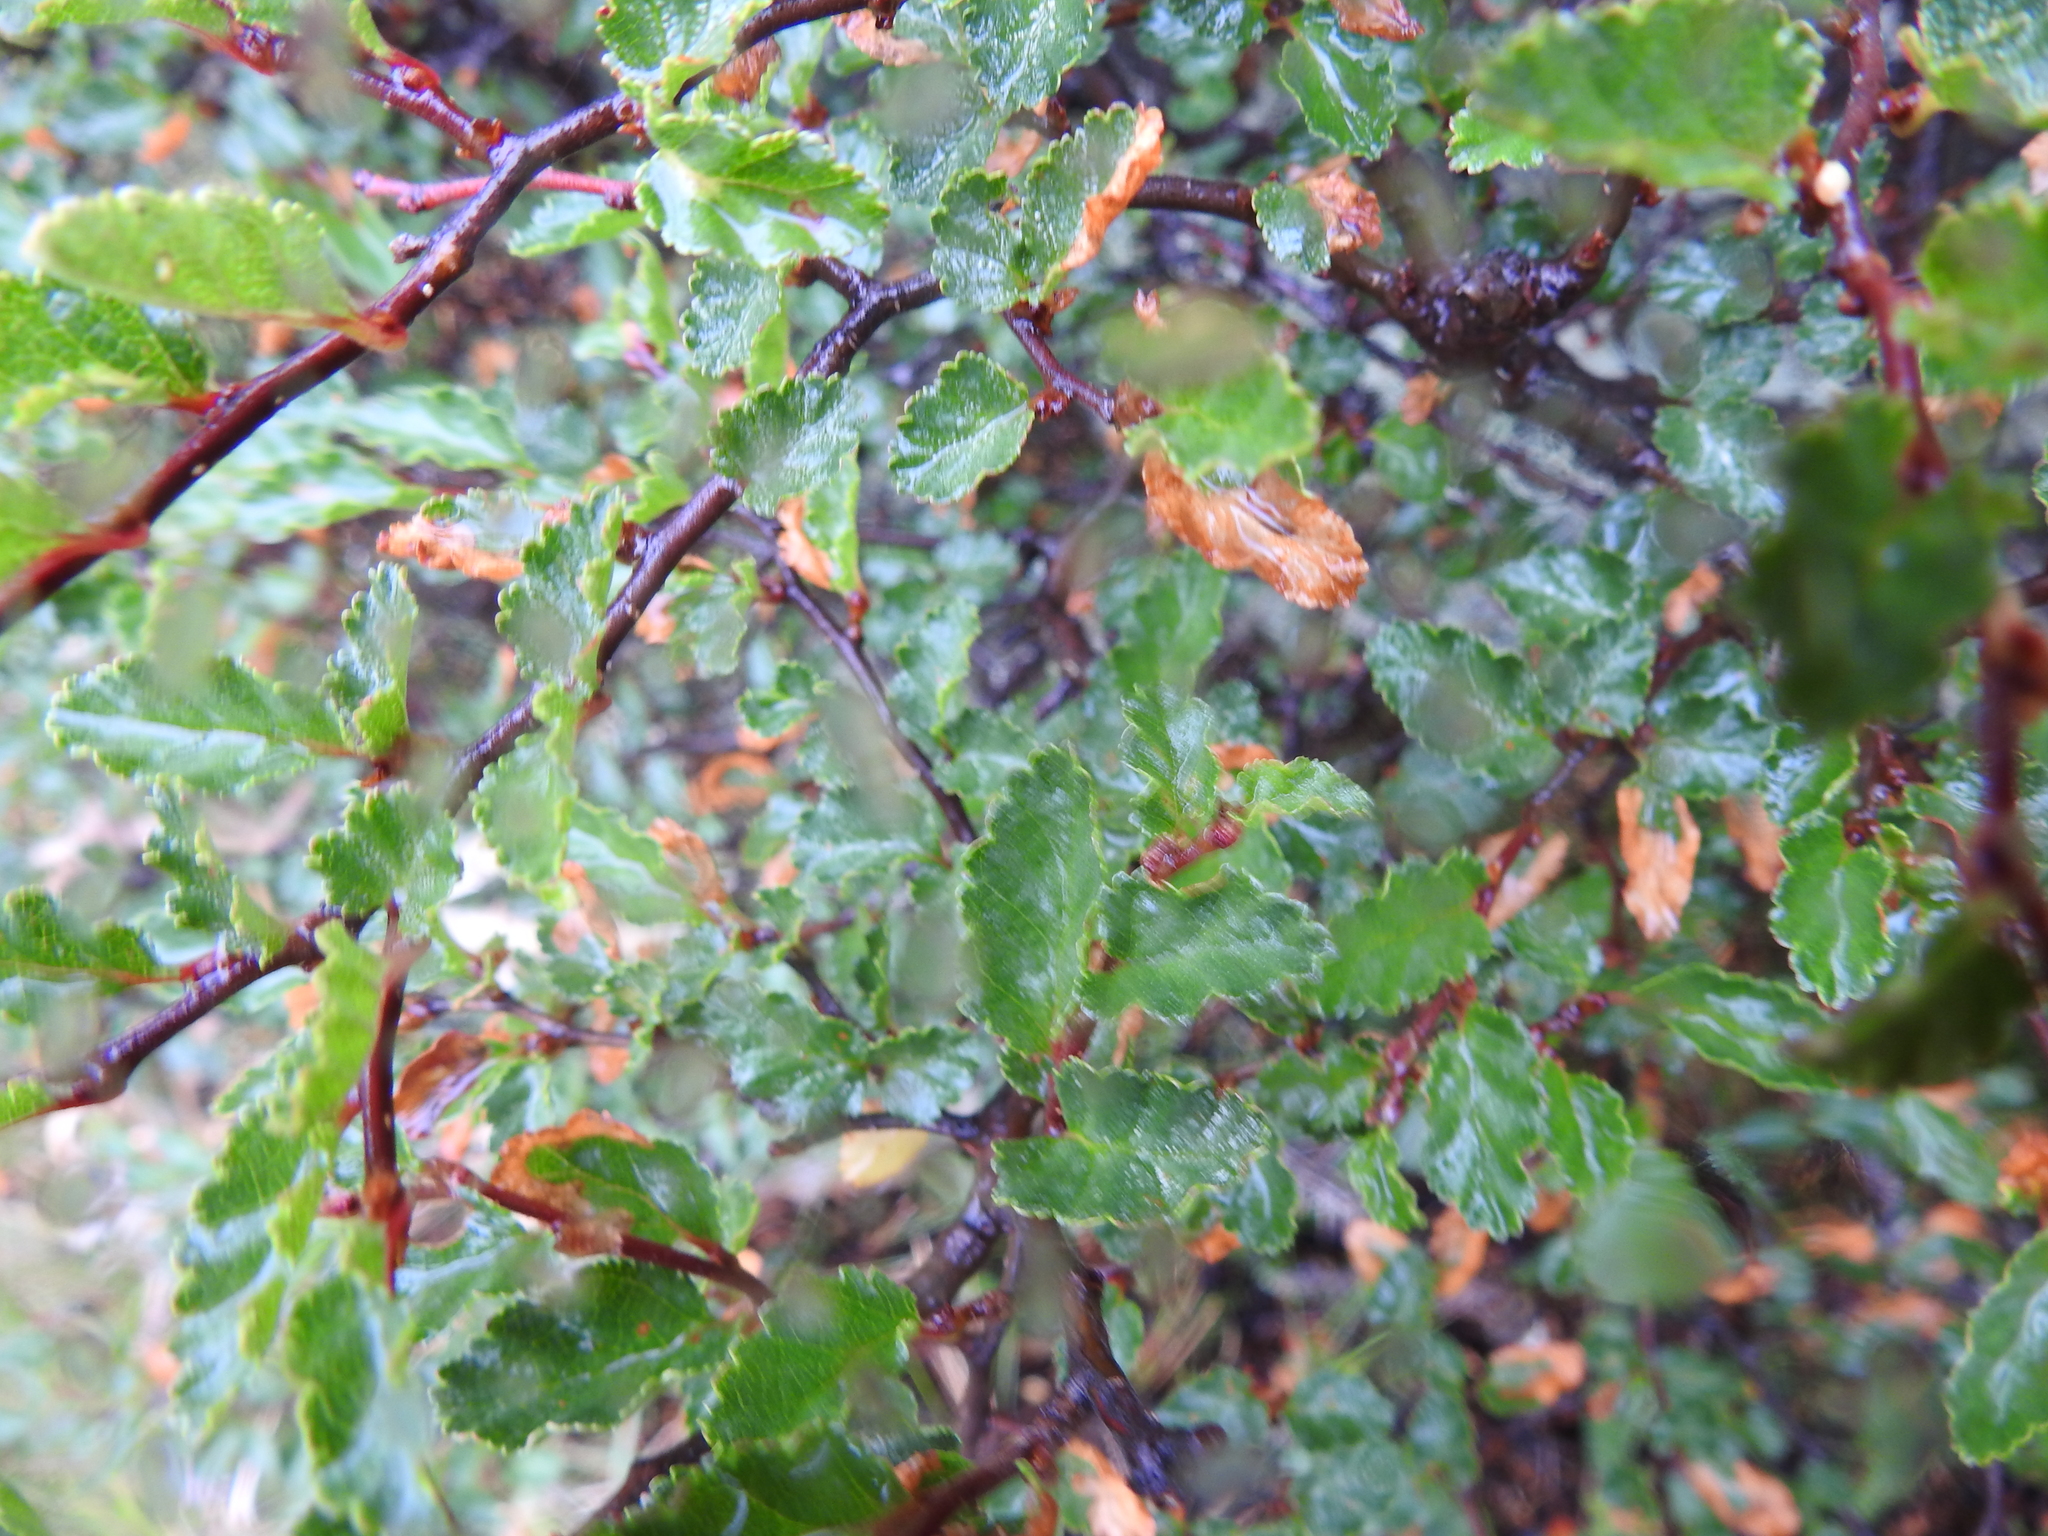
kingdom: Plantae
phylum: Tracheophyta
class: Magnoliopsida
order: Fagales
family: Nothofagaceae
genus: Nothofagus
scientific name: Nothofagus antarctica
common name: Antarctic beech
